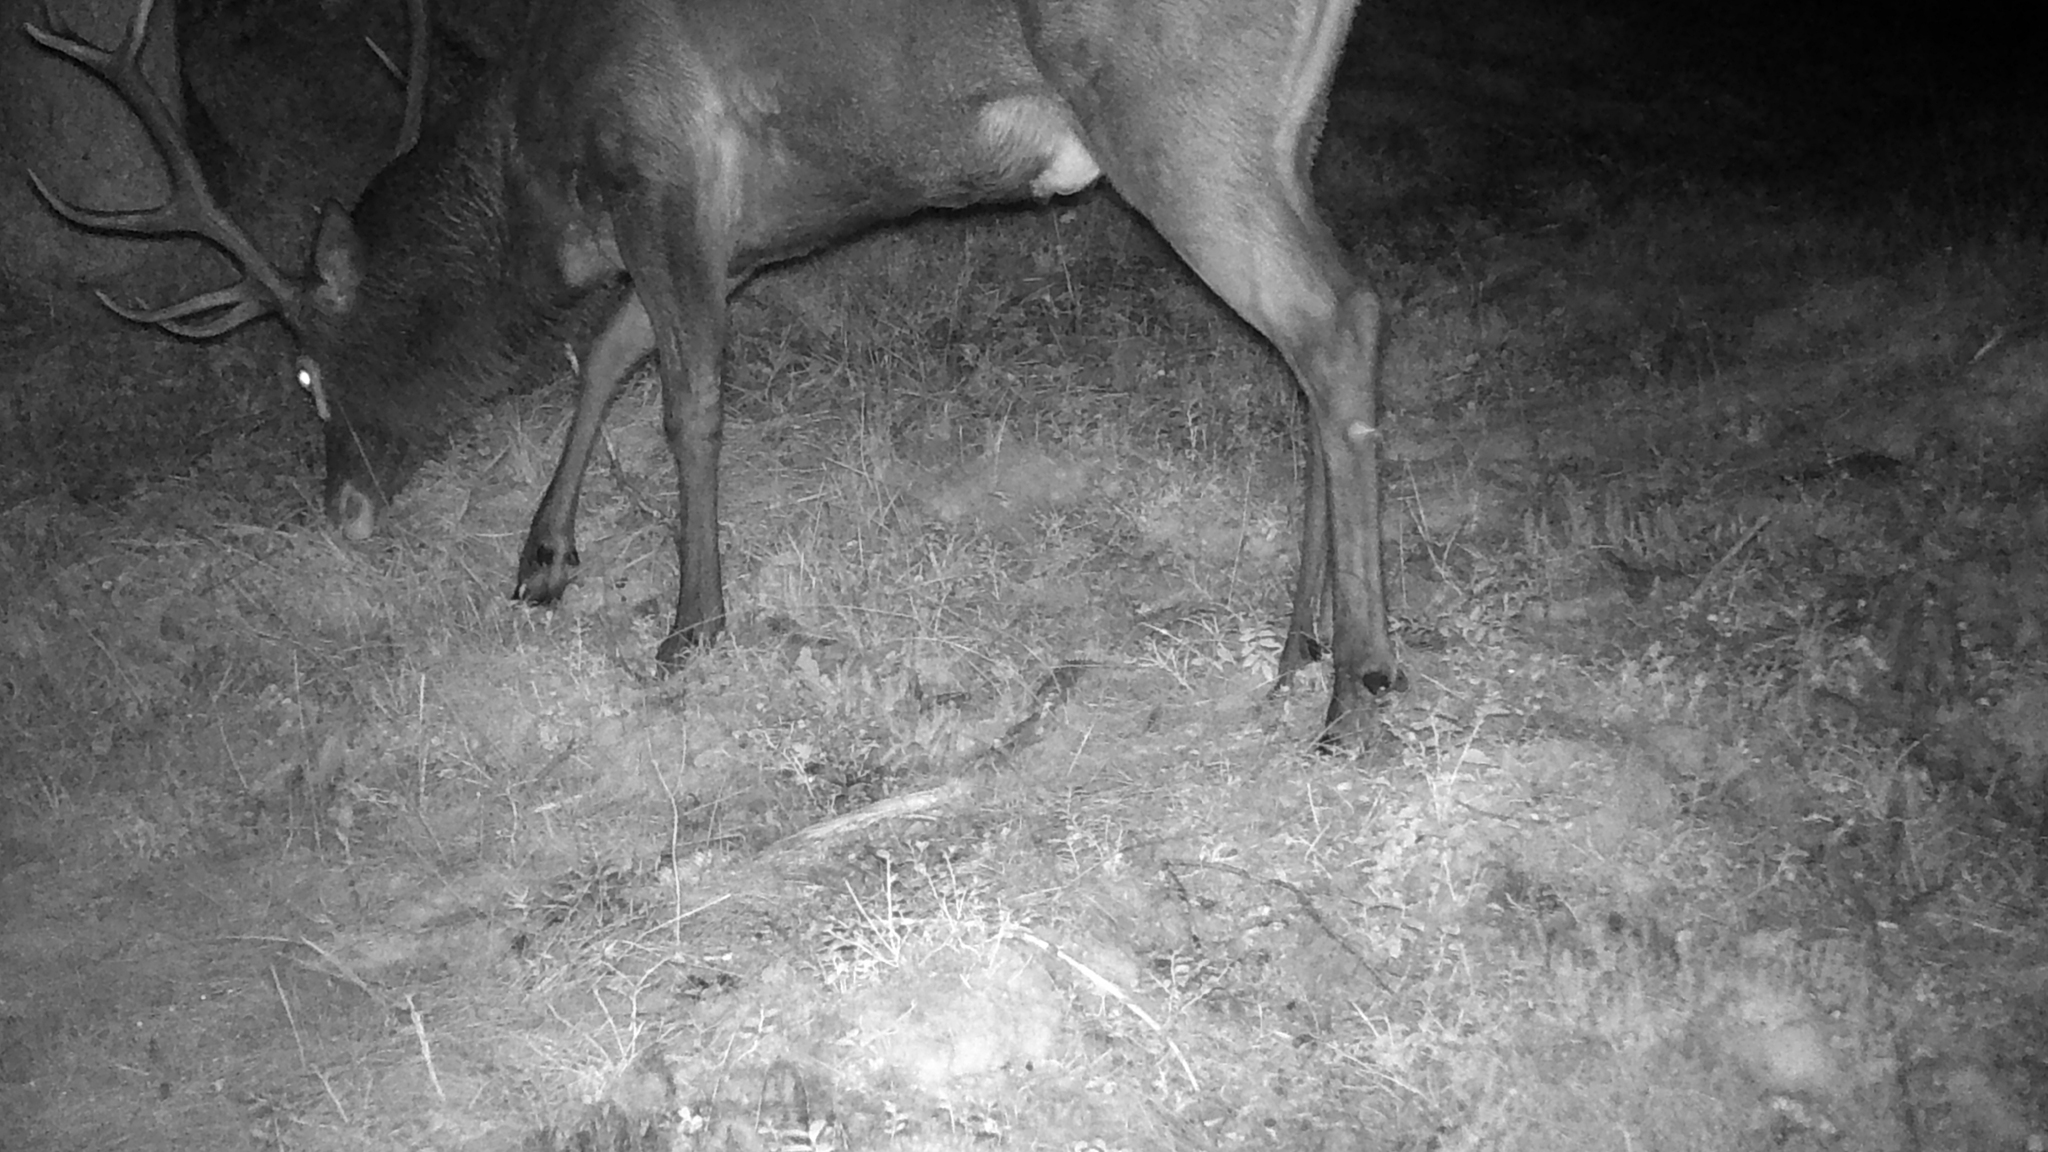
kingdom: Animalia
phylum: Chordata
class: Mammalia
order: Artiodactyla
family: Cervidae
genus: Cervus
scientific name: Cervus elaphus
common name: Red deer
